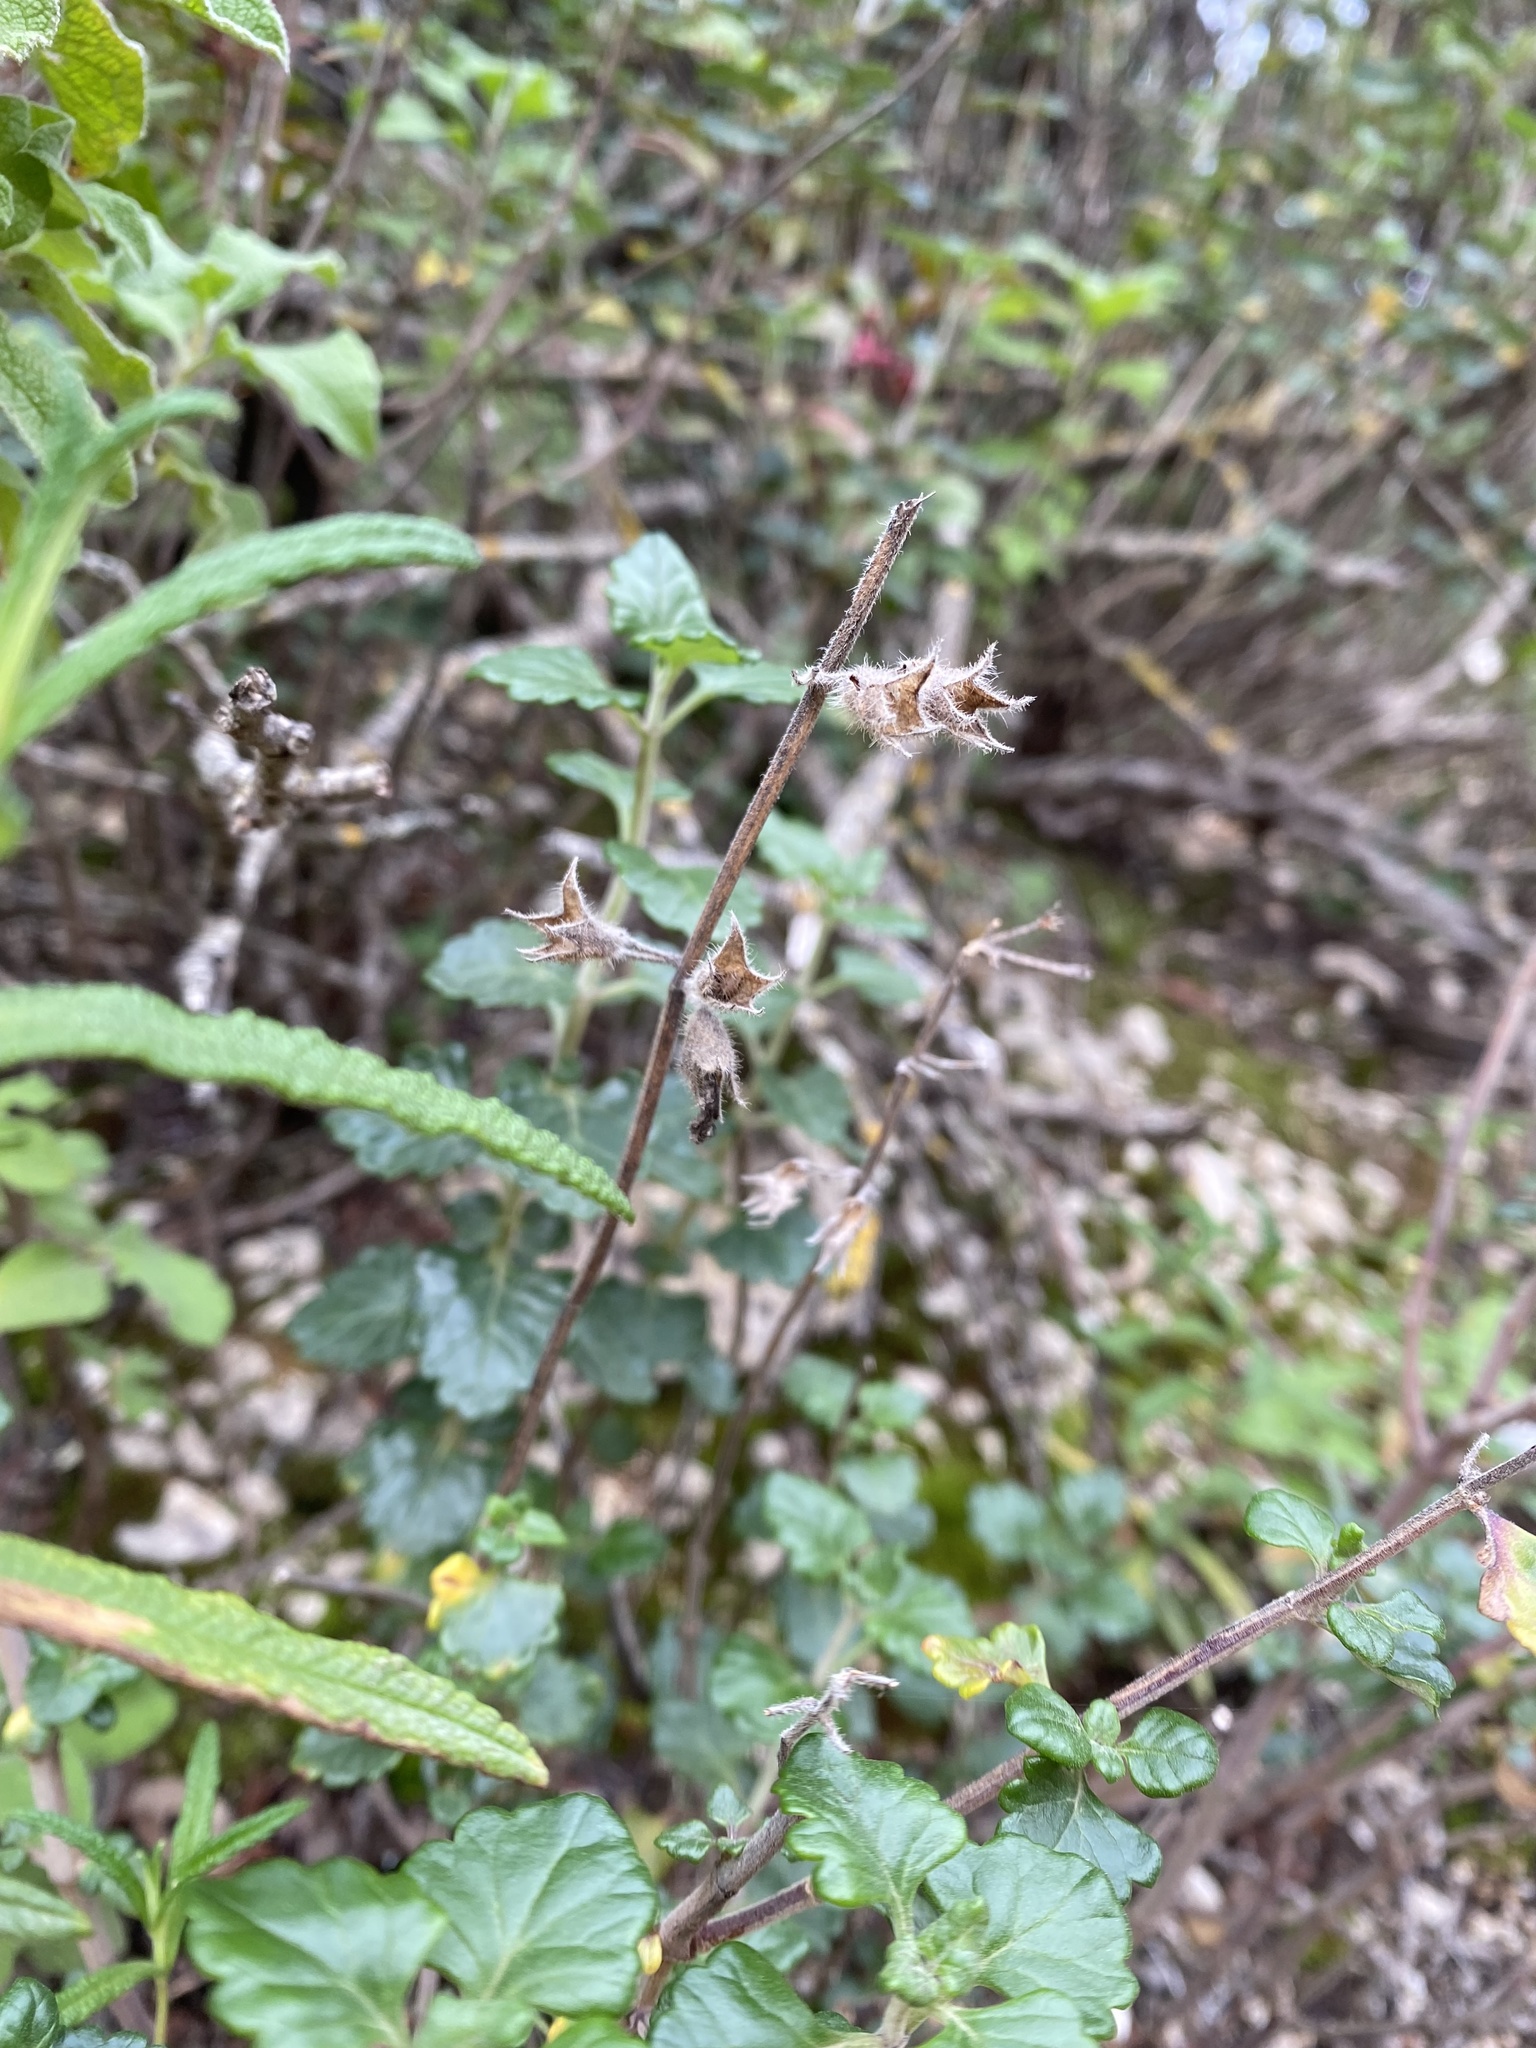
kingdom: Plantae
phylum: Tracheophyta
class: Magnoliopsida
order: Lamiales
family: Lamiaceae
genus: Teucrium
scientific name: Teucrium flavum
